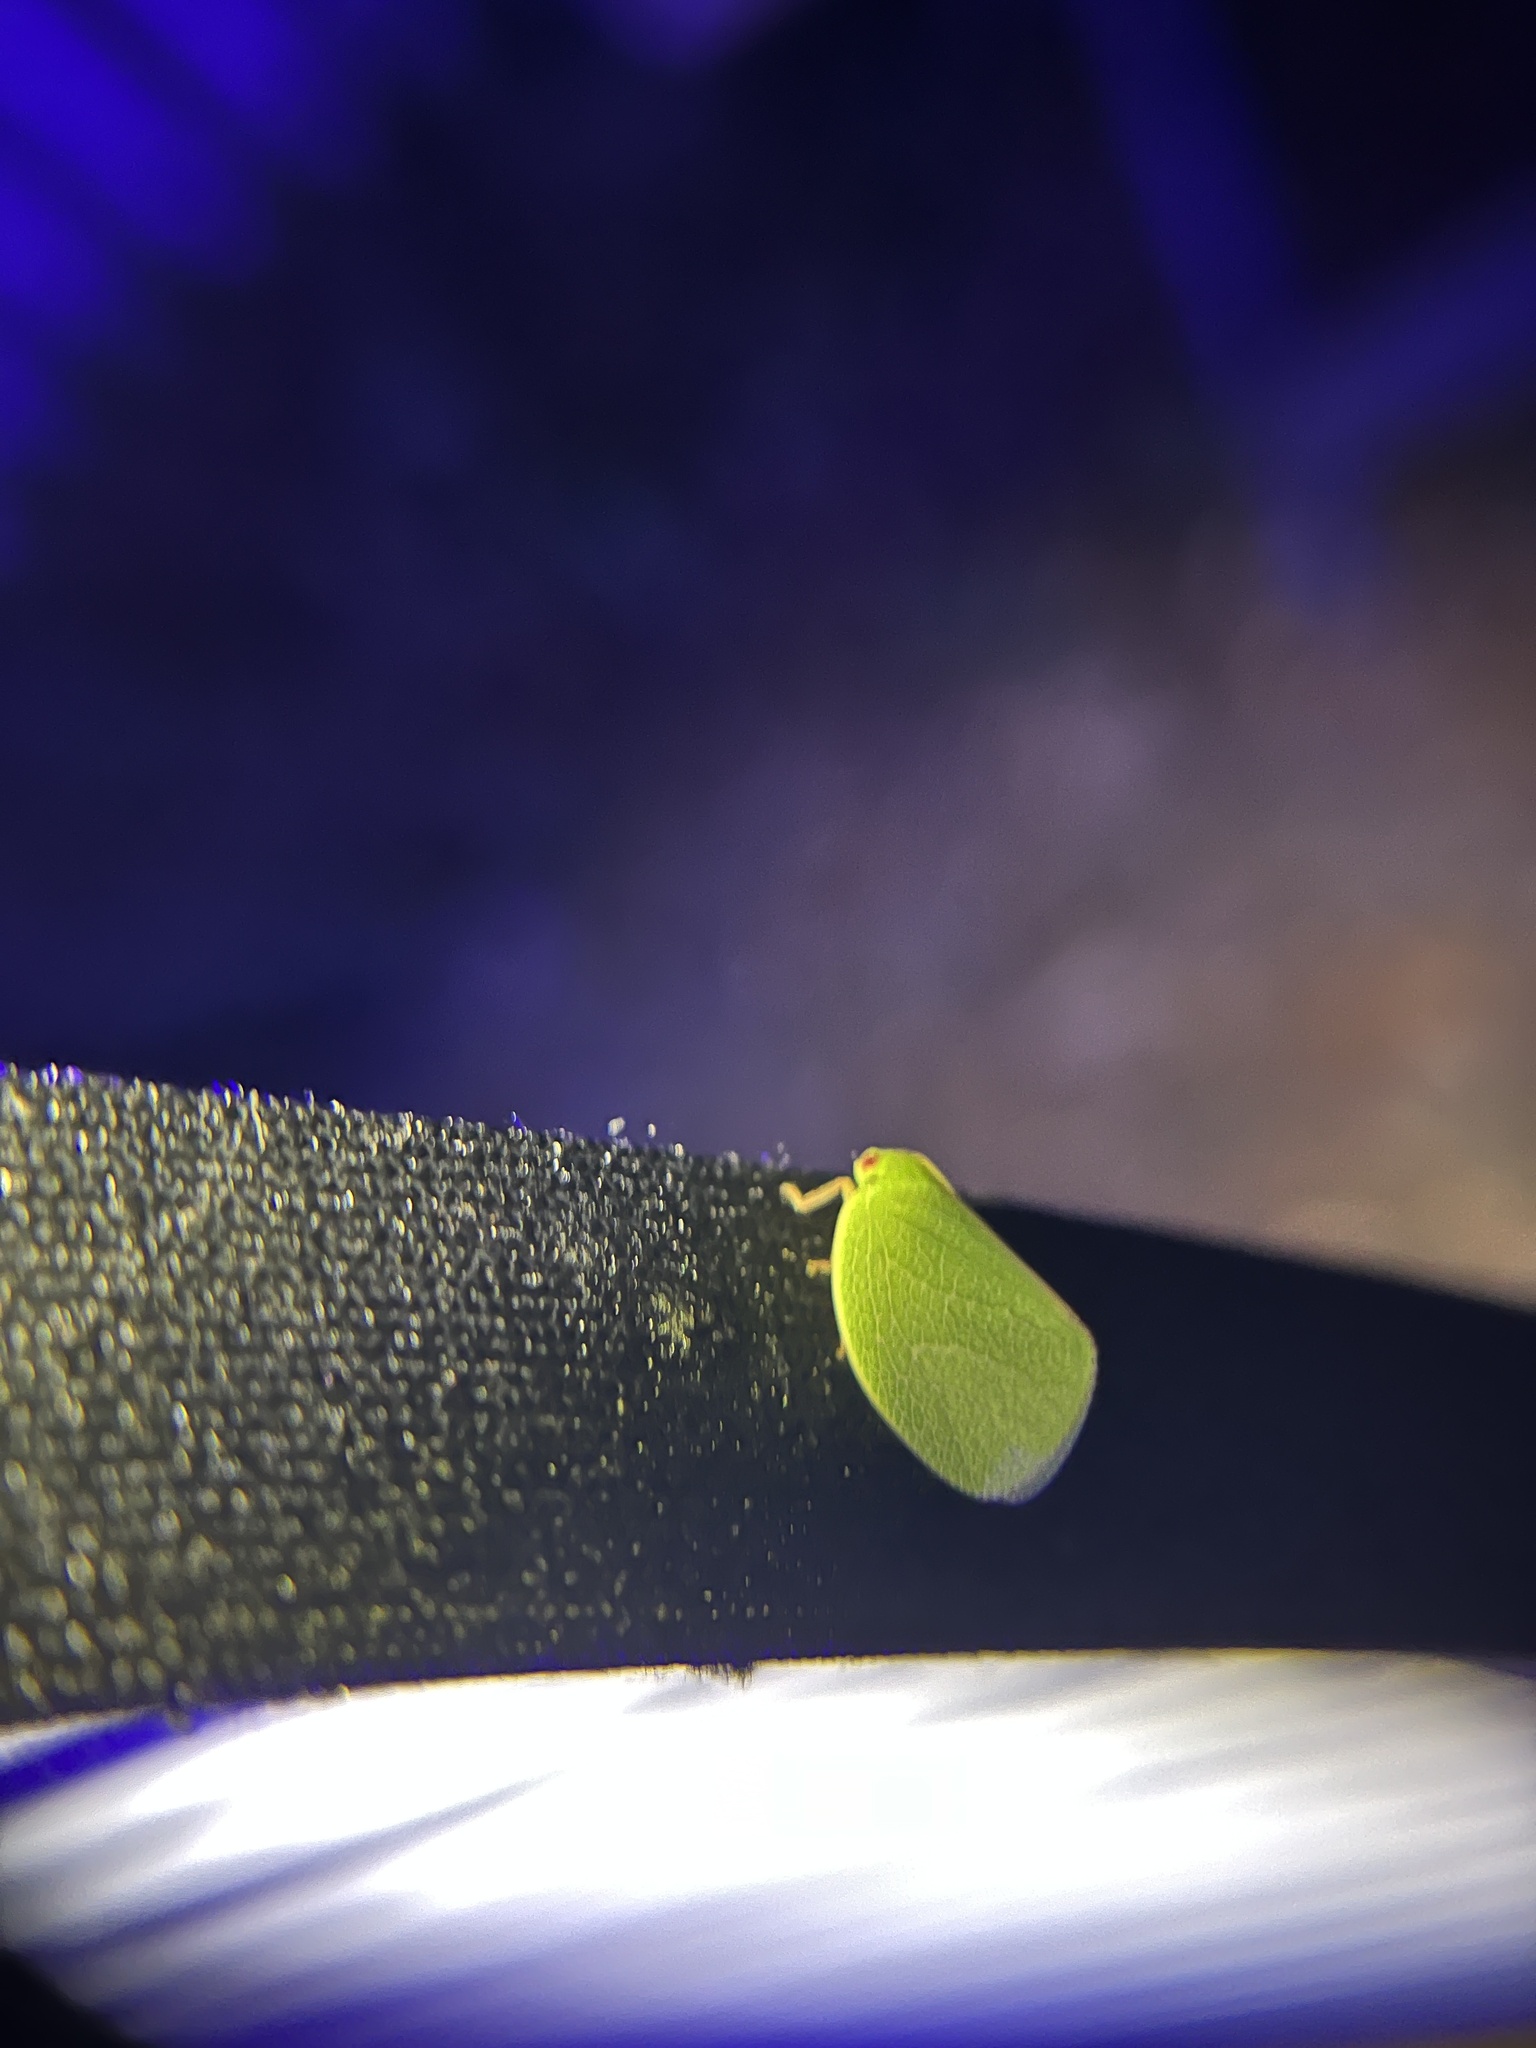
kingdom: Animalia
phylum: Arthropoda
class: Insecta
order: Hemiptera
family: Acanaloniidae
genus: Acanalonia
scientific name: Acanalonia servillei
